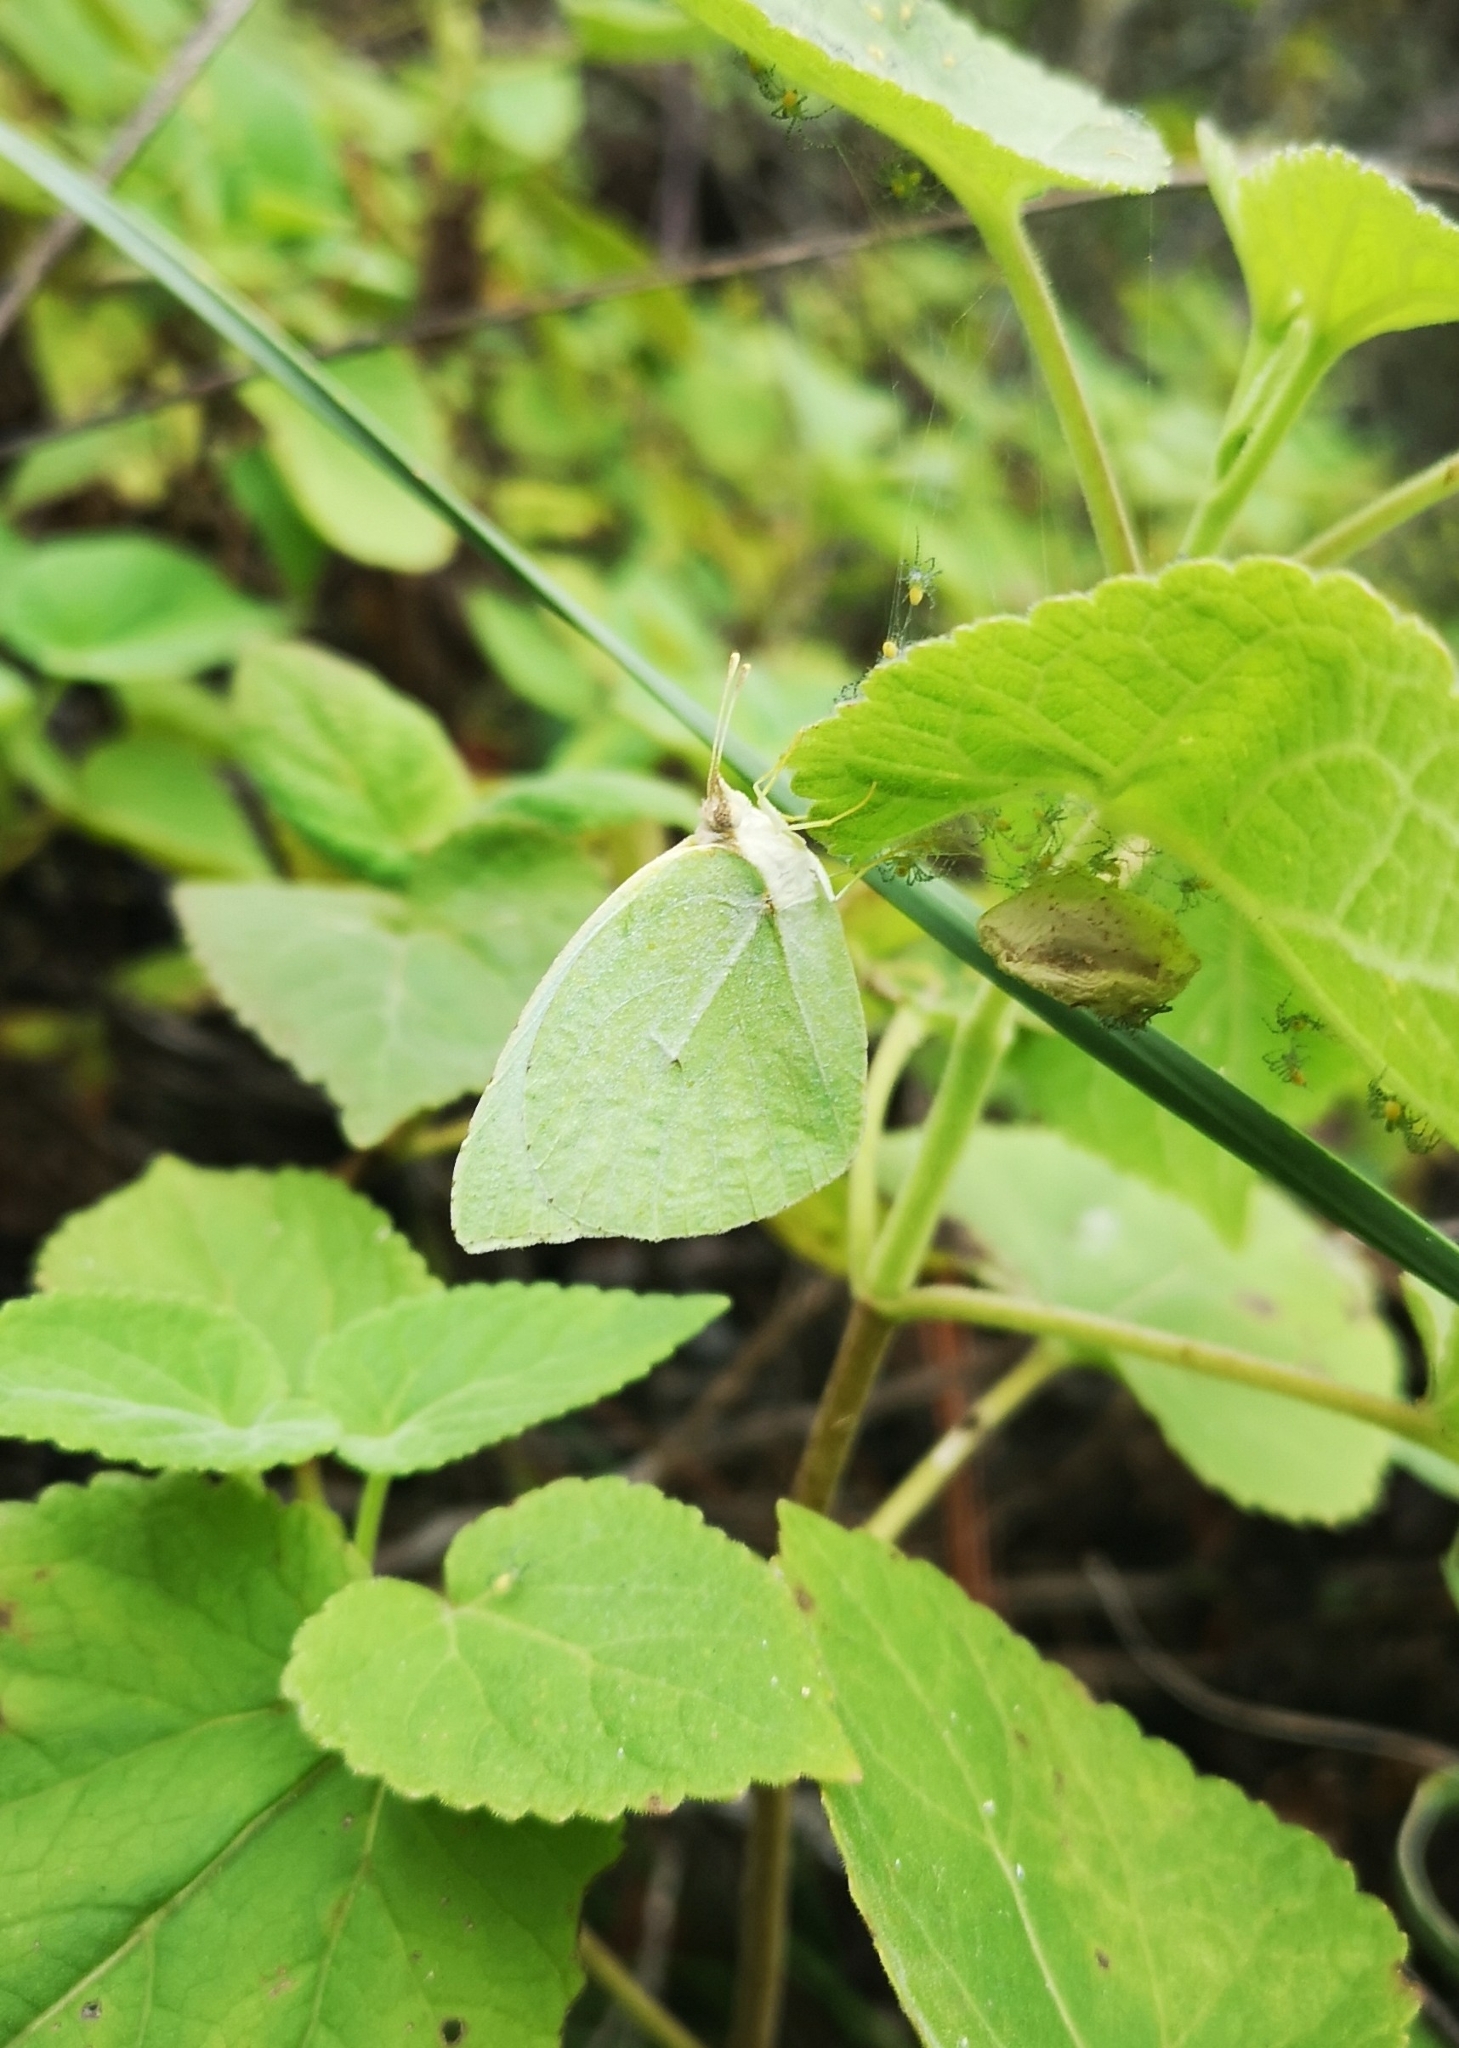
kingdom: Animalia
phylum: Arthropoda
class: Insecta
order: Lepidoptera
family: Pieridae
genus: Kricogonia
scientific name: Kricogonia lyside
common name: Guayacan sulphur,
